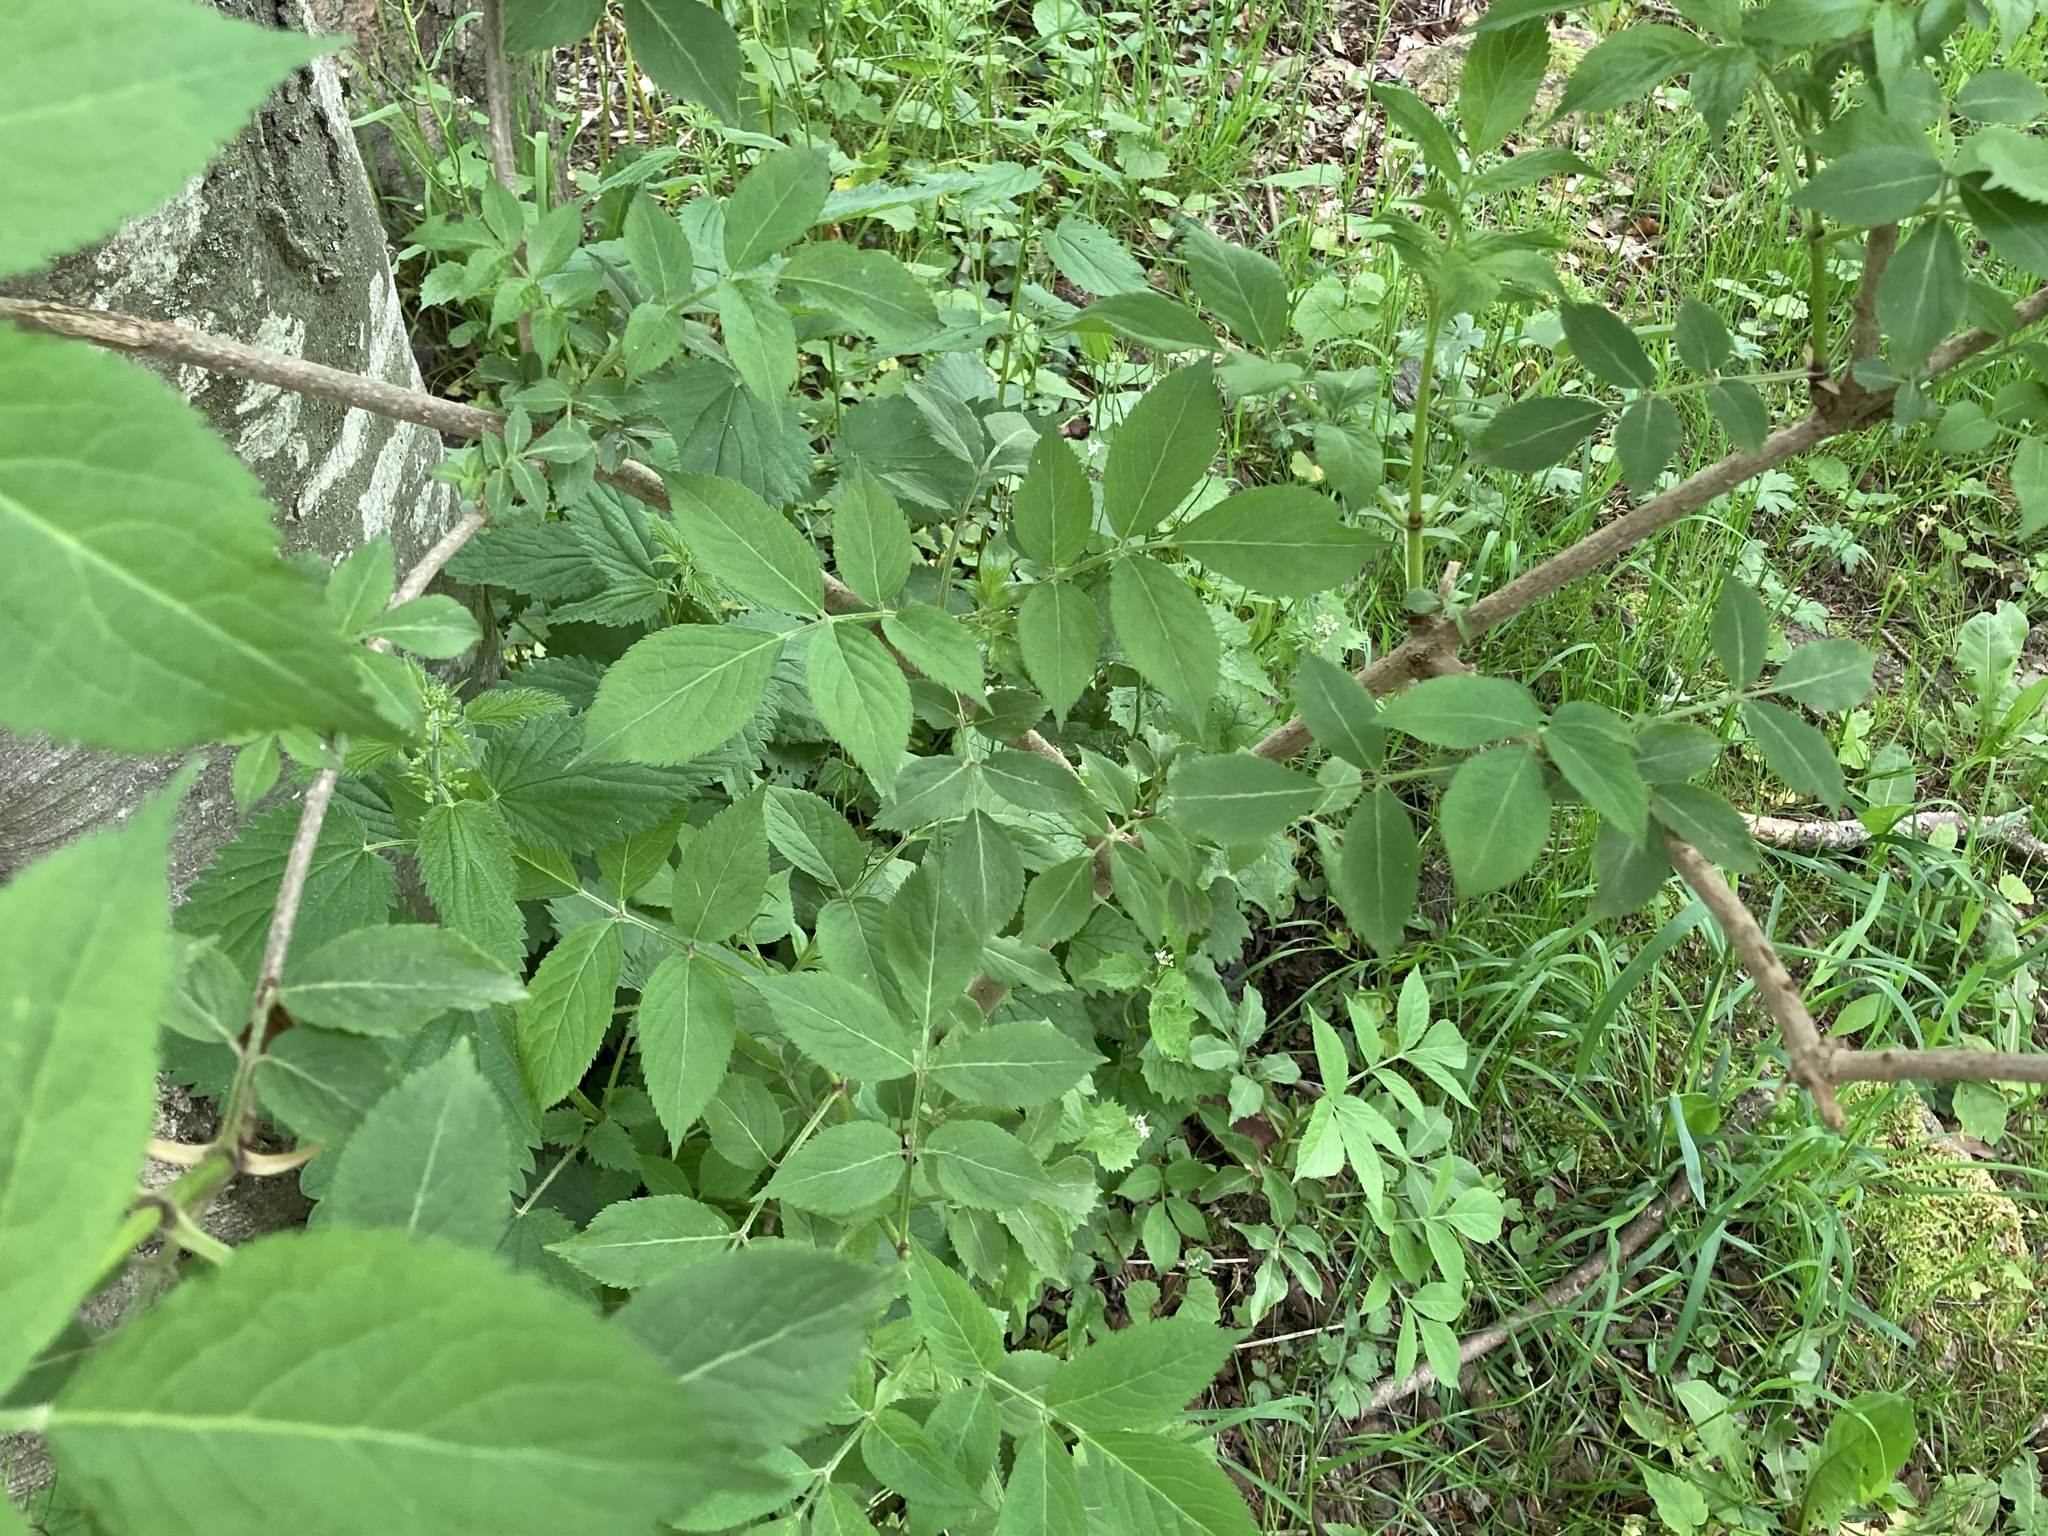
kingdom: Plantae
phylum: Tracheophyta
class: Magnoliopsida
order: Dipsacales
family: Viburnaceae
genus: Sambucus
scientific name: Sambucus nigra
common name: Elder
